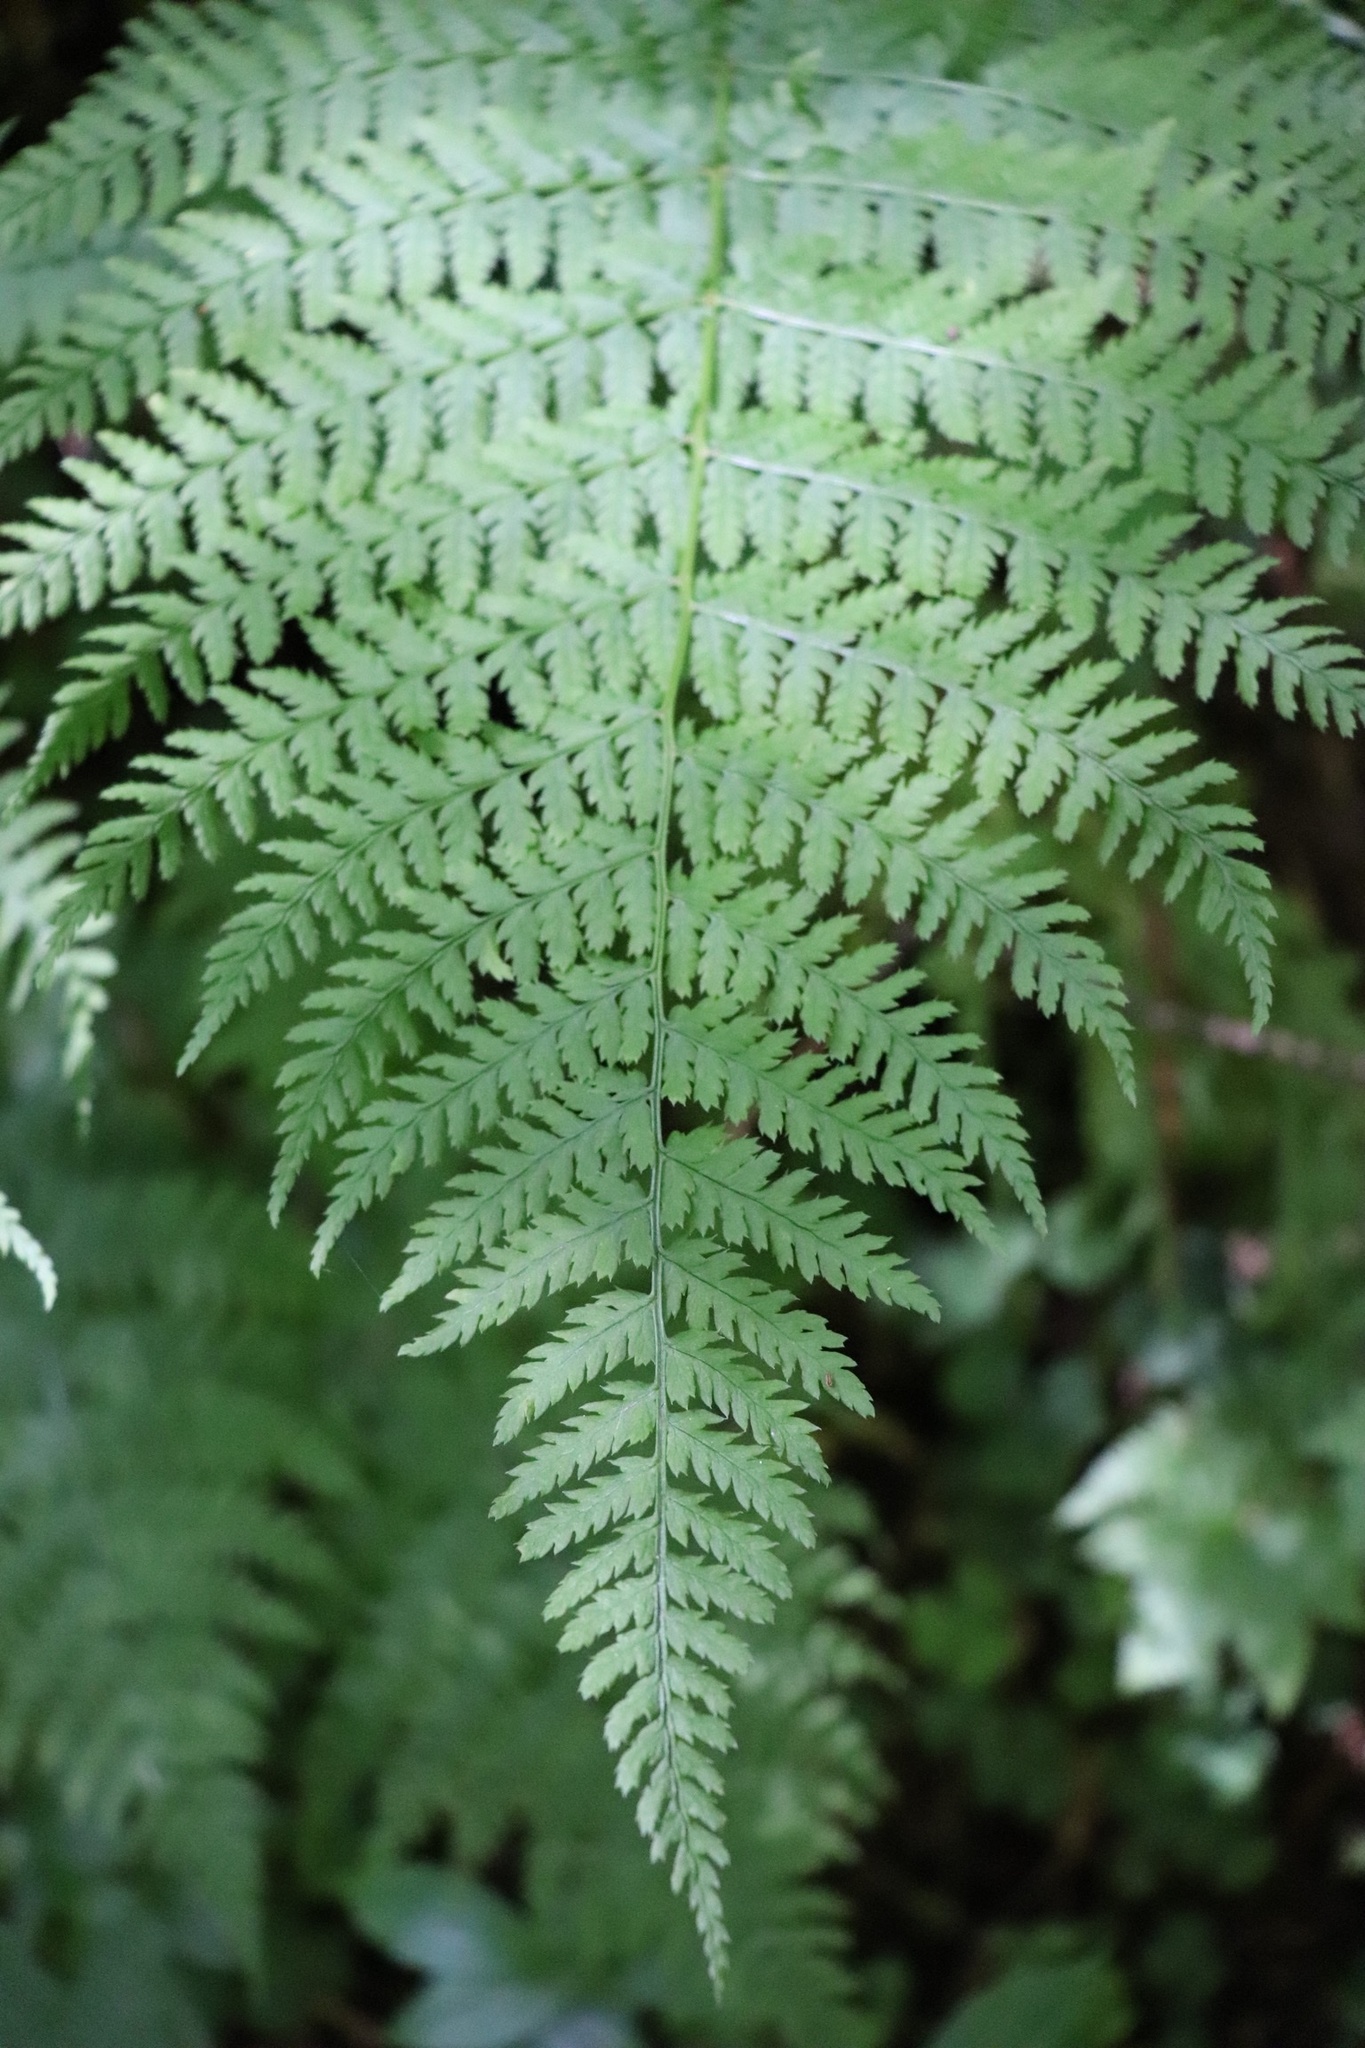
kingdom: Plantae
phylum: Tracheophyta
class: Polypodiopsida
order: Polypodiales
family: Dryopteridaceae
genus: Dryopteris
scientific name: Dryopteris expansa
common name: Northern buckler fern
